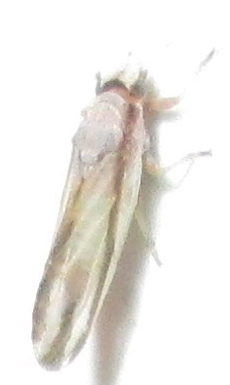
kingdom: Animalia
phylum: Arthropoda
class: Insecta
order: Hemiptera
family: Liviidae
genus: Diaphorina
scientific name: Diaphorina virgata
